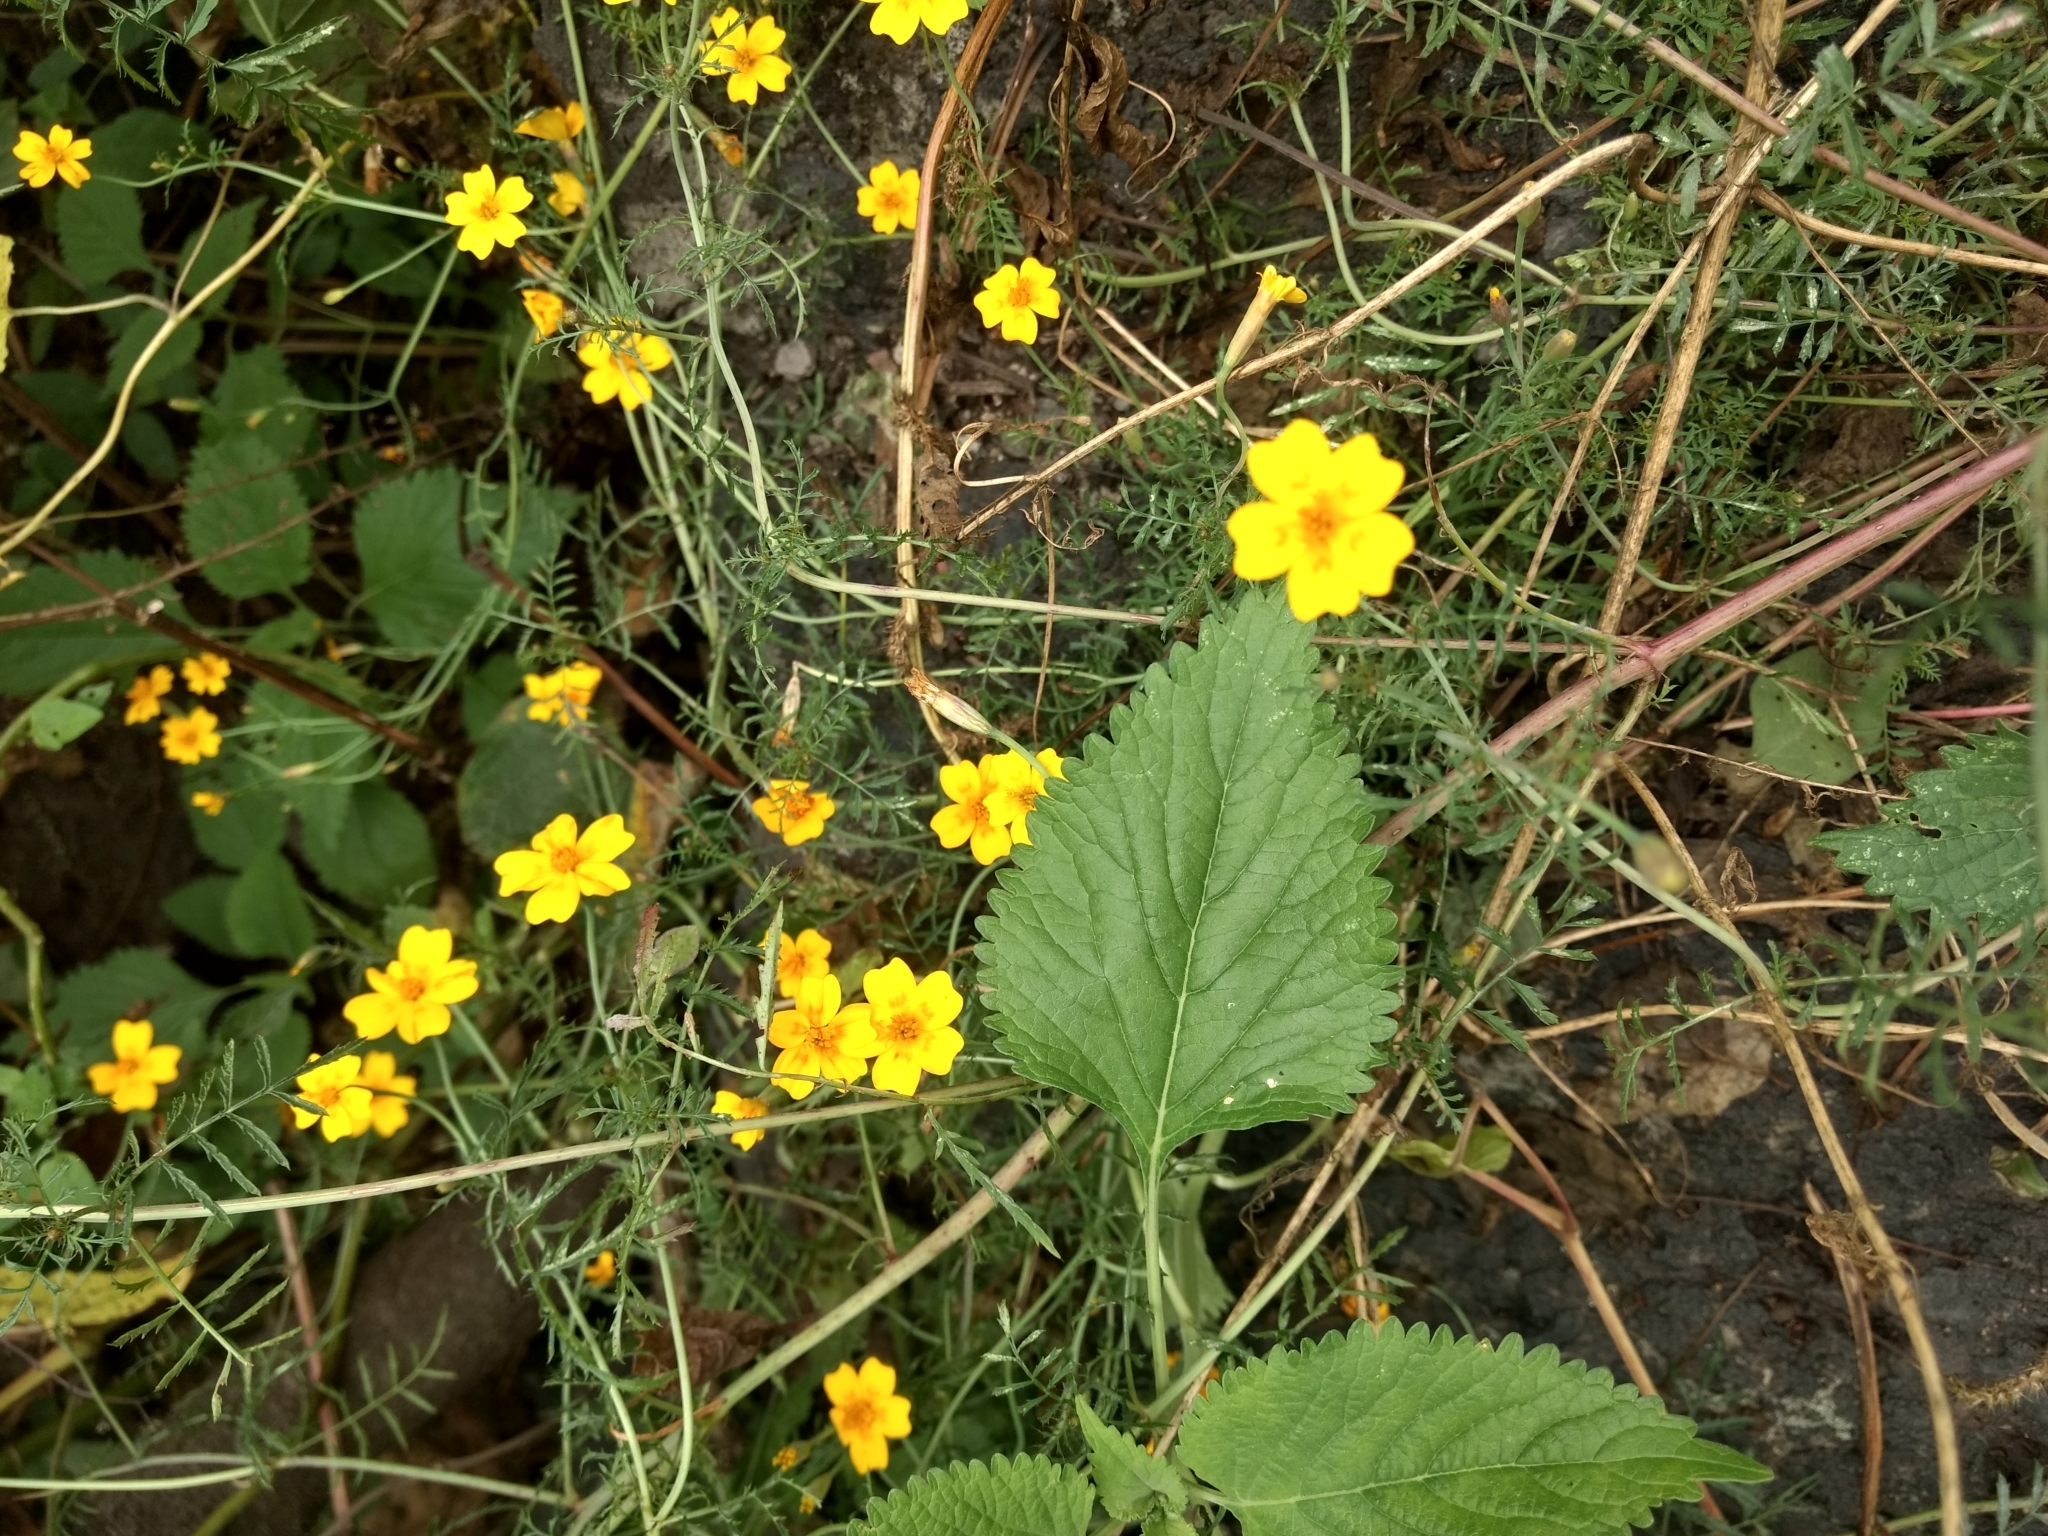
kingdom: Plantae
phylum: Tracheophyta
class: Magnoliopsida
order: Asterales
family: Asteraceae
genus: Tagetes
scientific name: Tagetes lunulata
